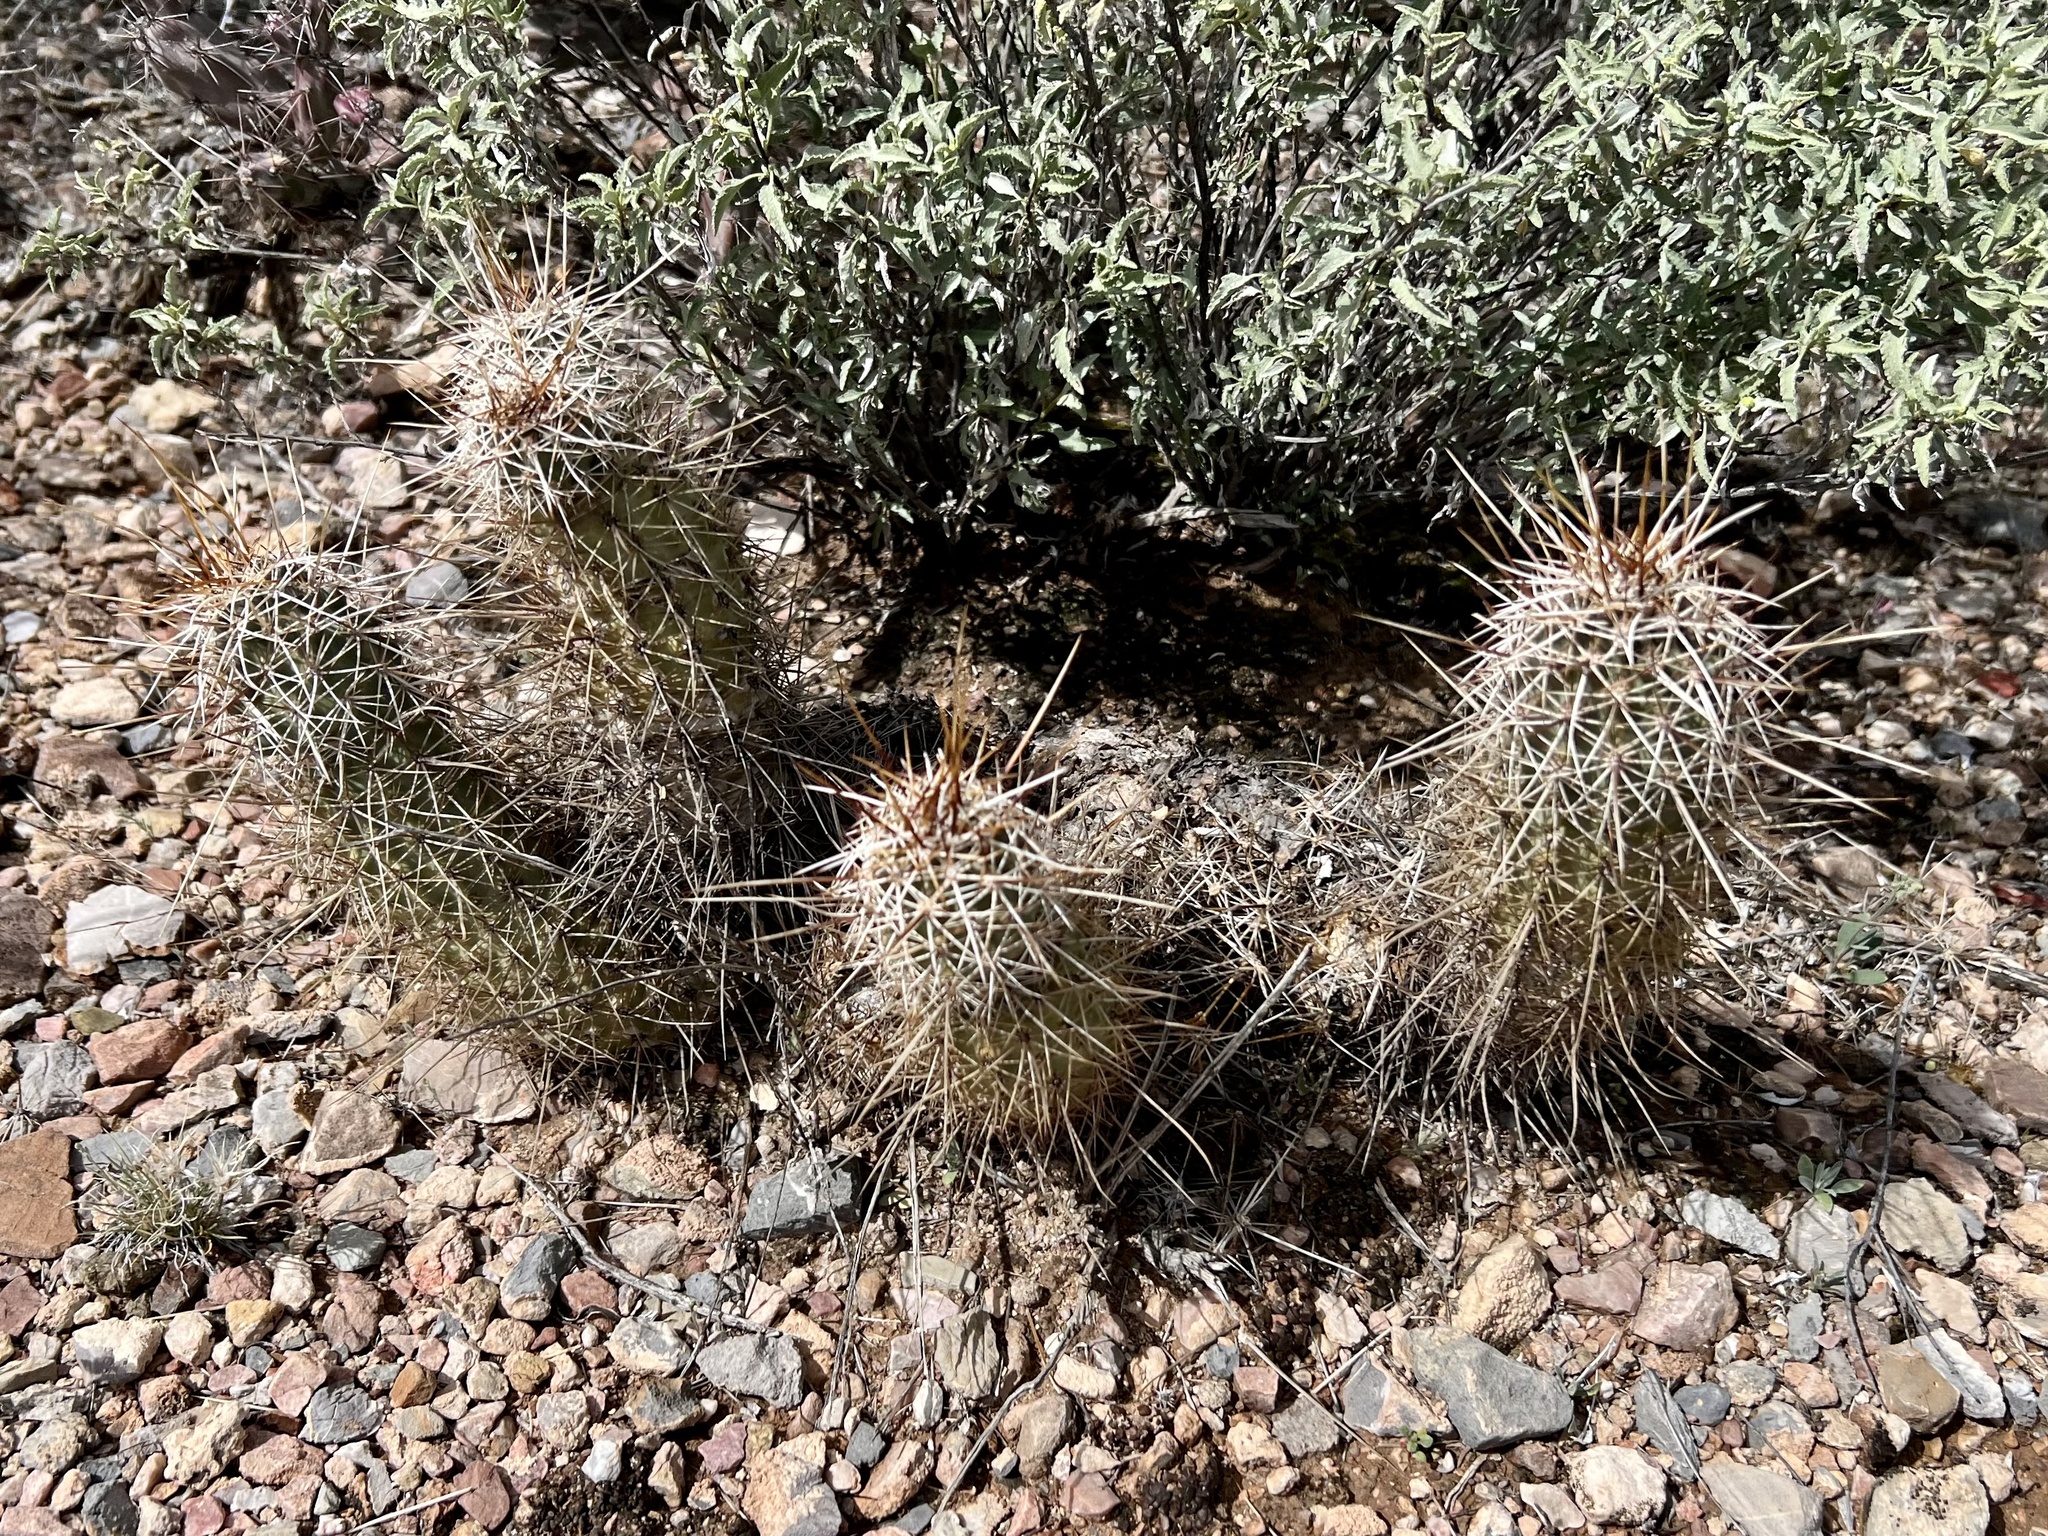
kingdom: Plantae
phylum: Tracheophyta
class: Magnoliopsida
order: Caryophyllales
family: Cactaceae
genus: Echinocereus
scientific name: Echinocereus fasciculatus
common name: Bundle hedgehog
